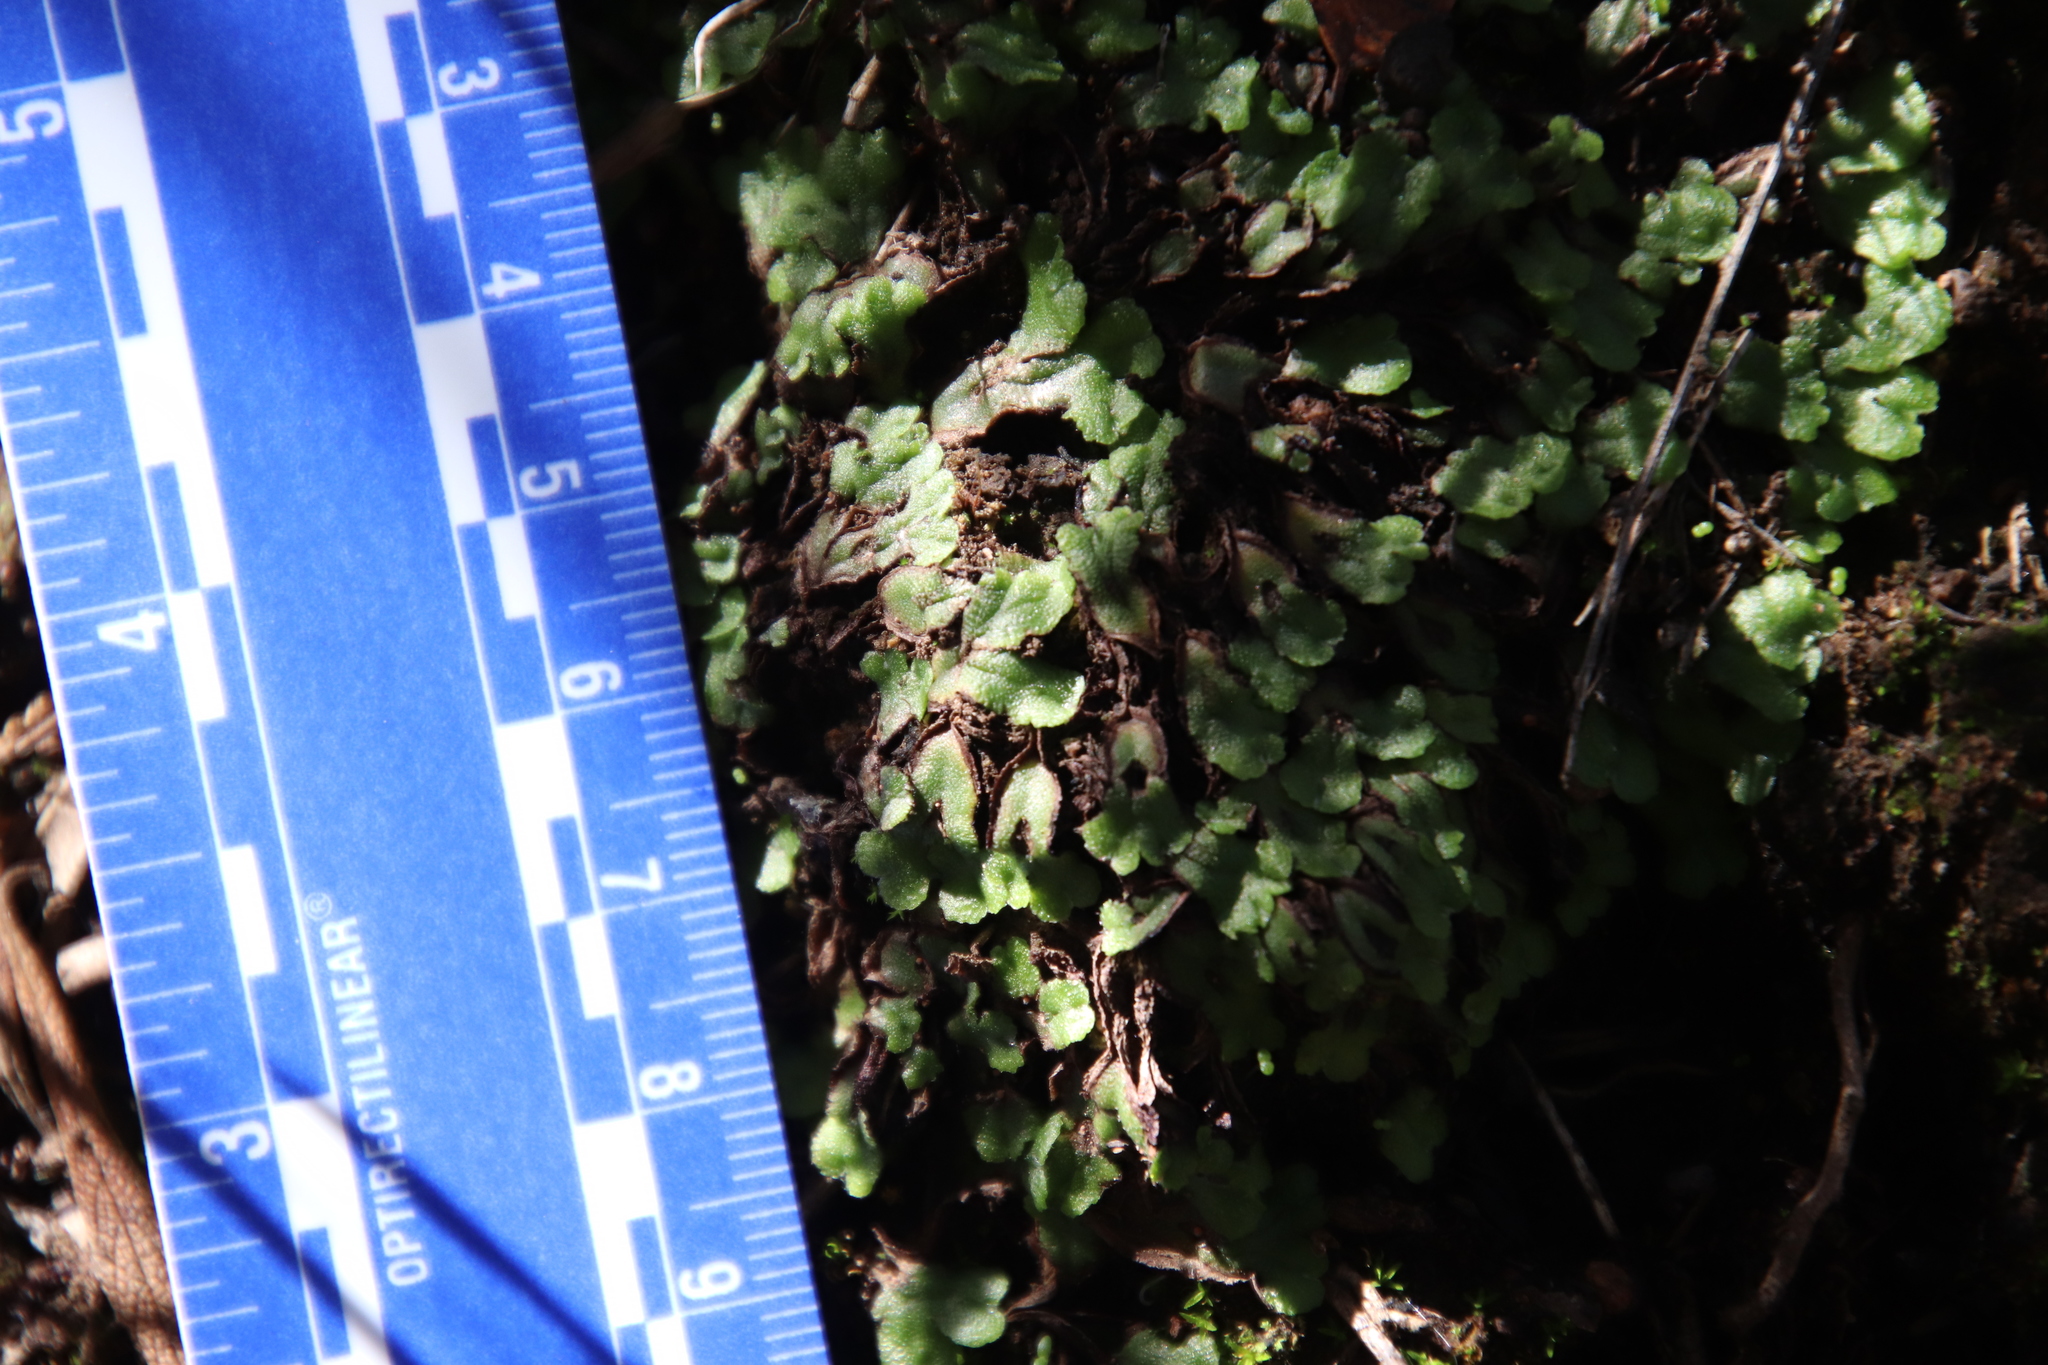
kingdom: Plantae
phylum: Marchantiophyta
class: Marchantiopsida
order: Marchantiales
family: Aytoniaceae
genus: Asterella
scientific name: Asterella californica
